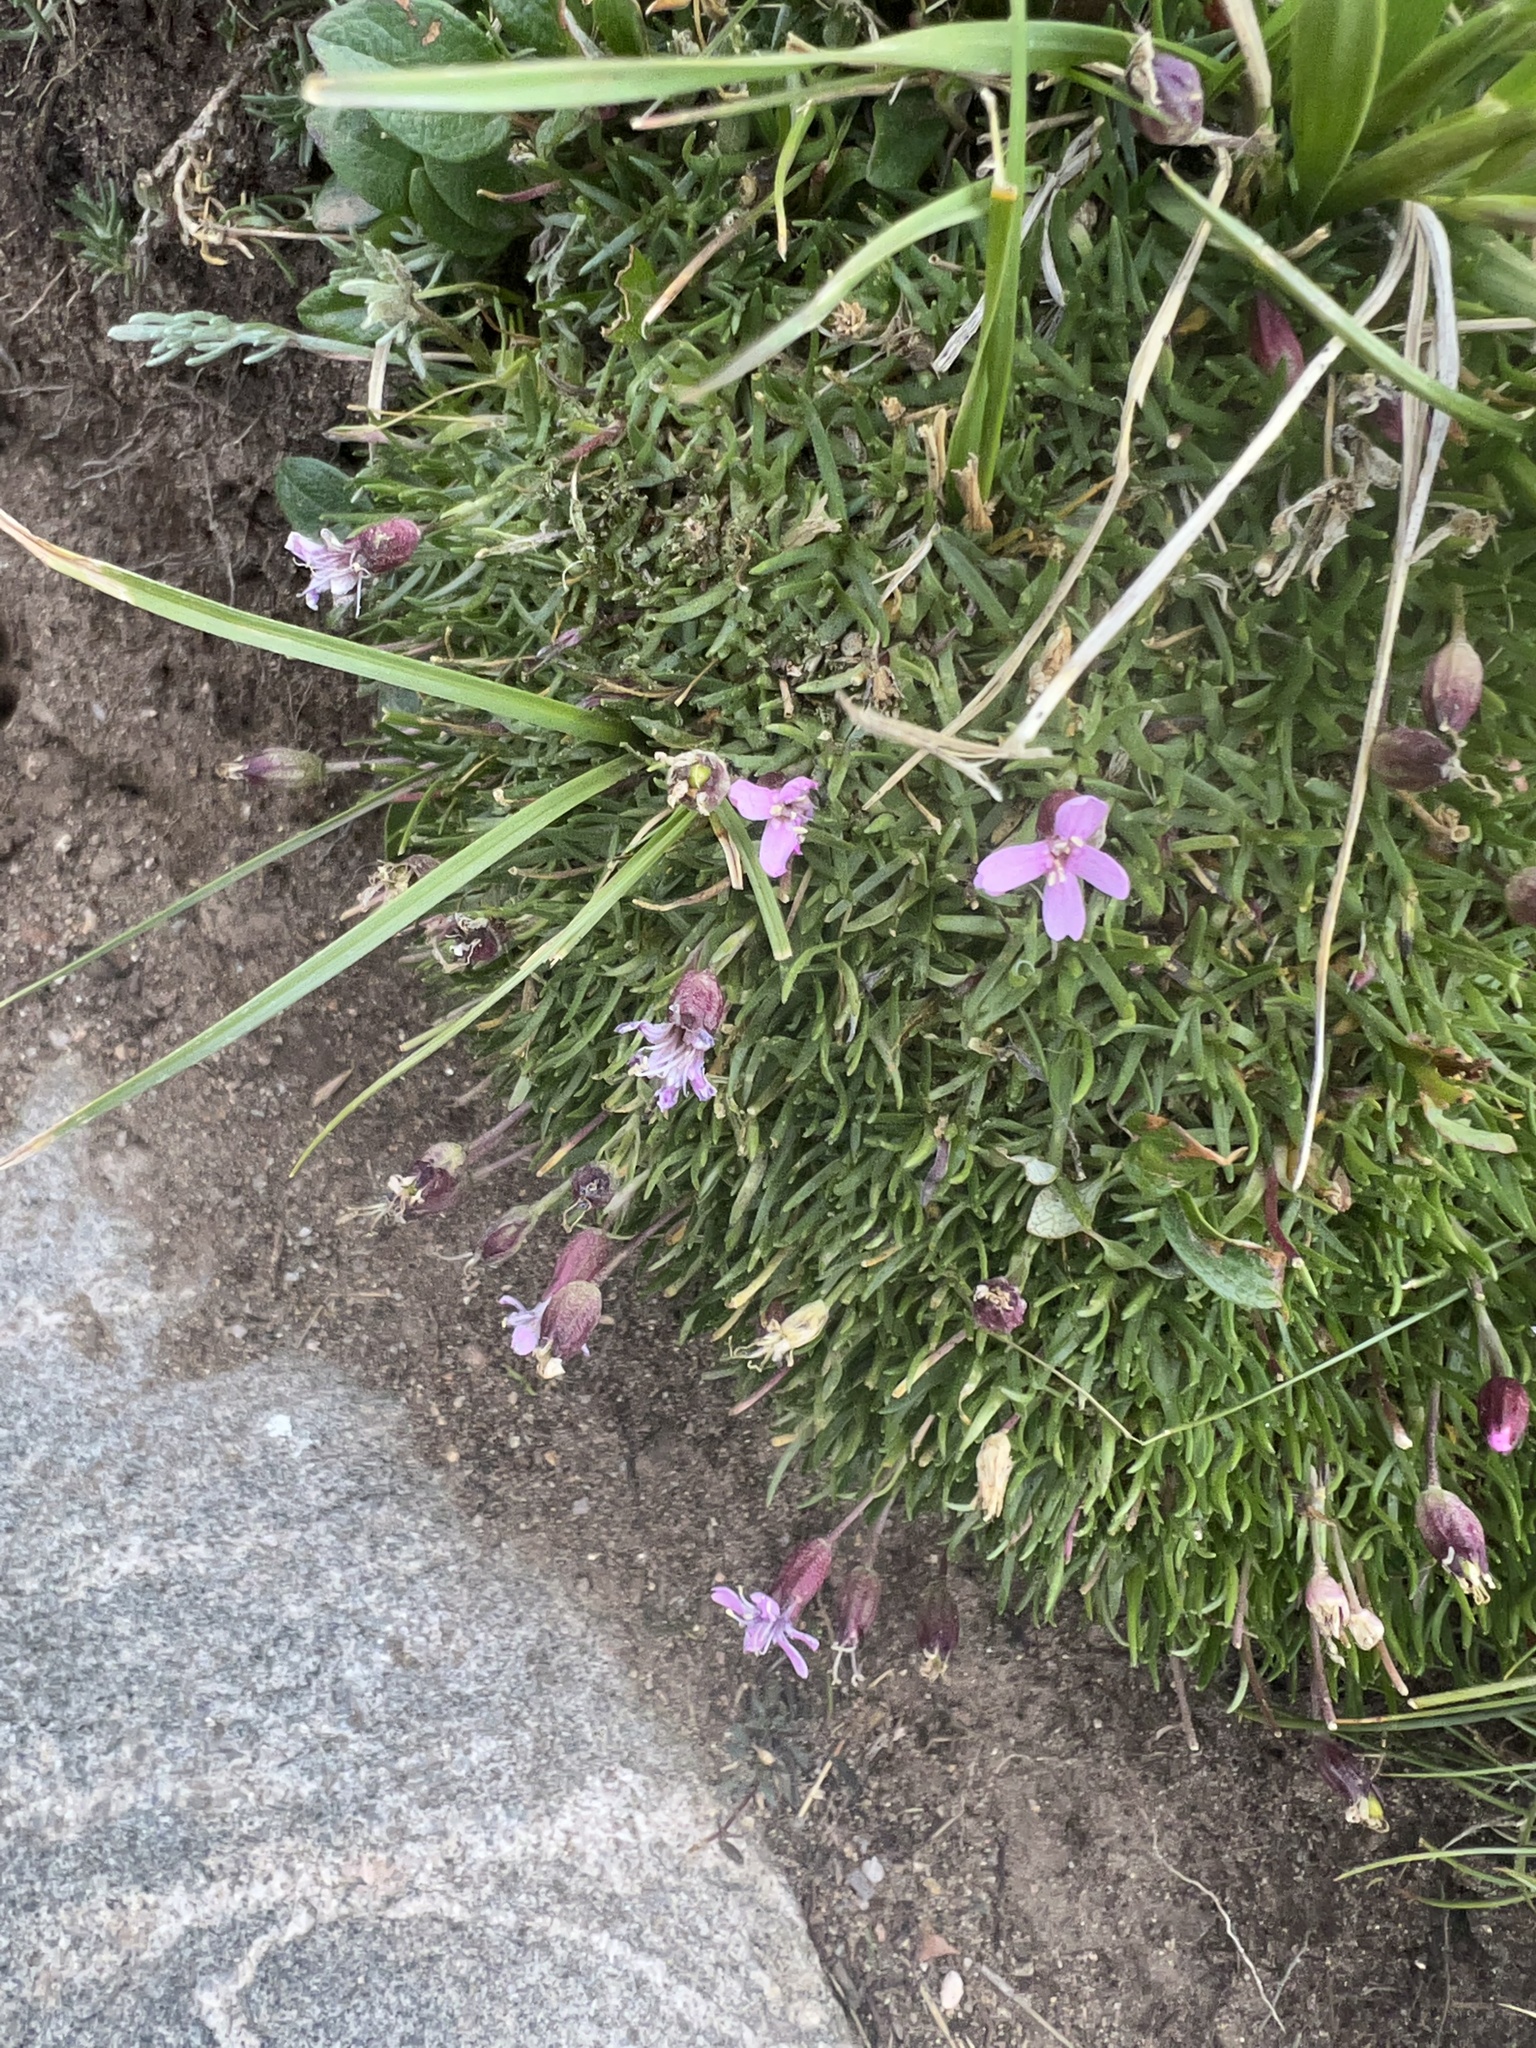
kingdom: Plantae
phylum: Tracheophyta
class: Magnoliopsida
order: Caryophyllales
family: Caryophyllaceae
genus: Silene
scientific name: Silene acaulis
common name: Moss campion
